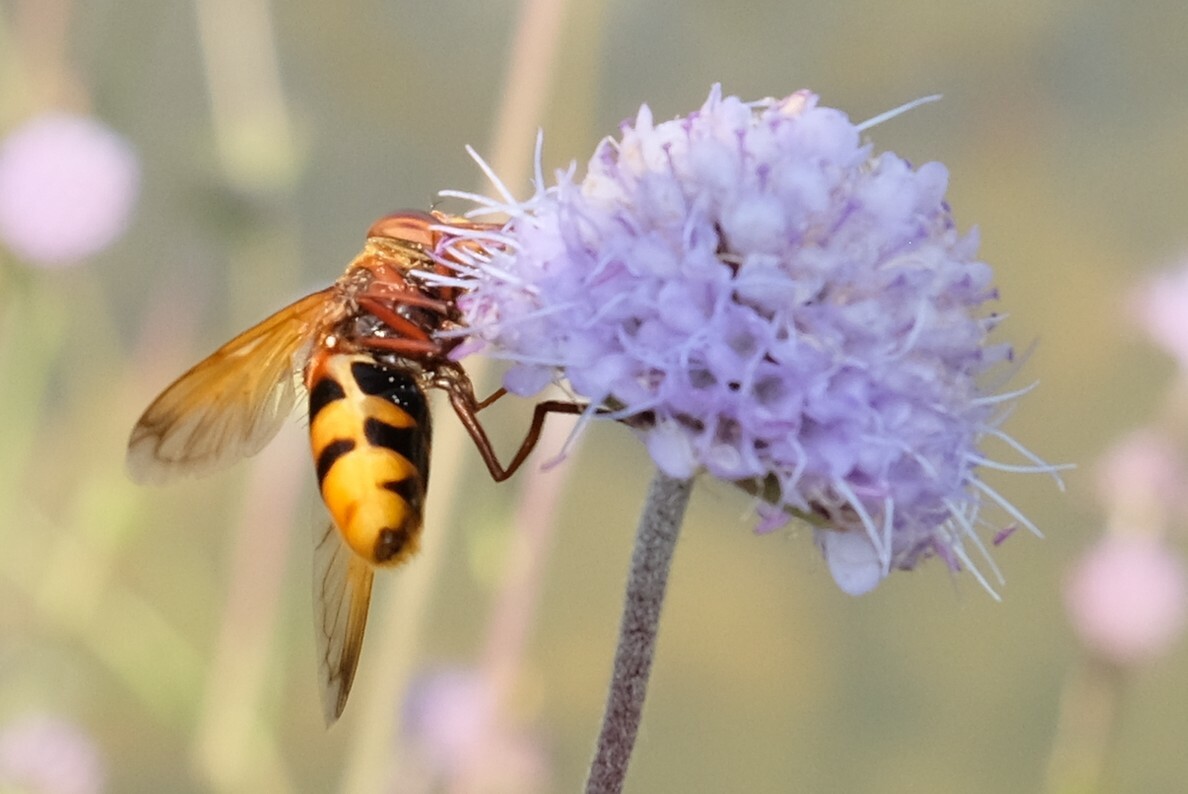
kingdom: Animalia
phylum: Arthropoda
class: Insecta
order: Diptera
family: Syrphidae
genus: Volucella
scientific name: Volucella zonaria
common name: Hornet hoverfly
